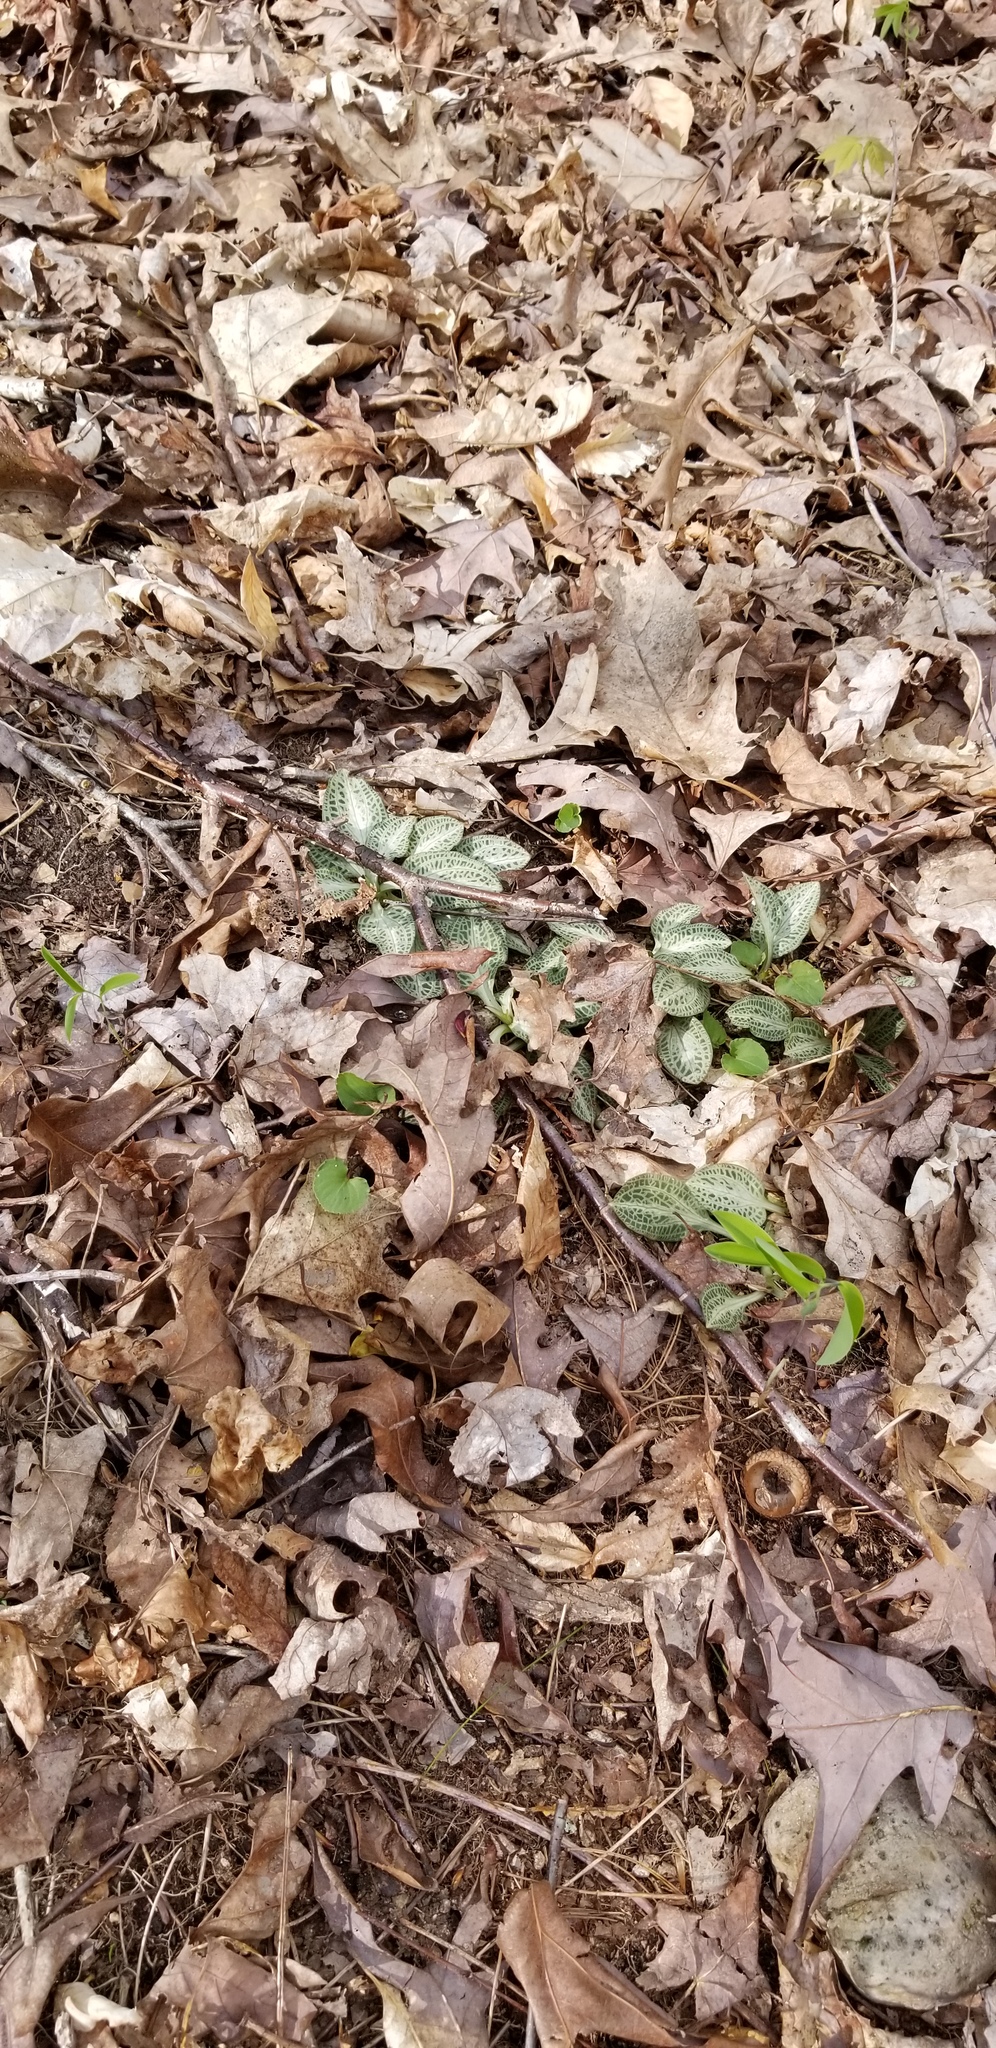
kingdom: Plantae
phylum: Tracheophyta
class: Liliopsida
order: Asparagales
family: Orchidaceae
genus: Goodyera
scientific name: Goodyera pubescens
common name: Downy rattlesnake-plantain
